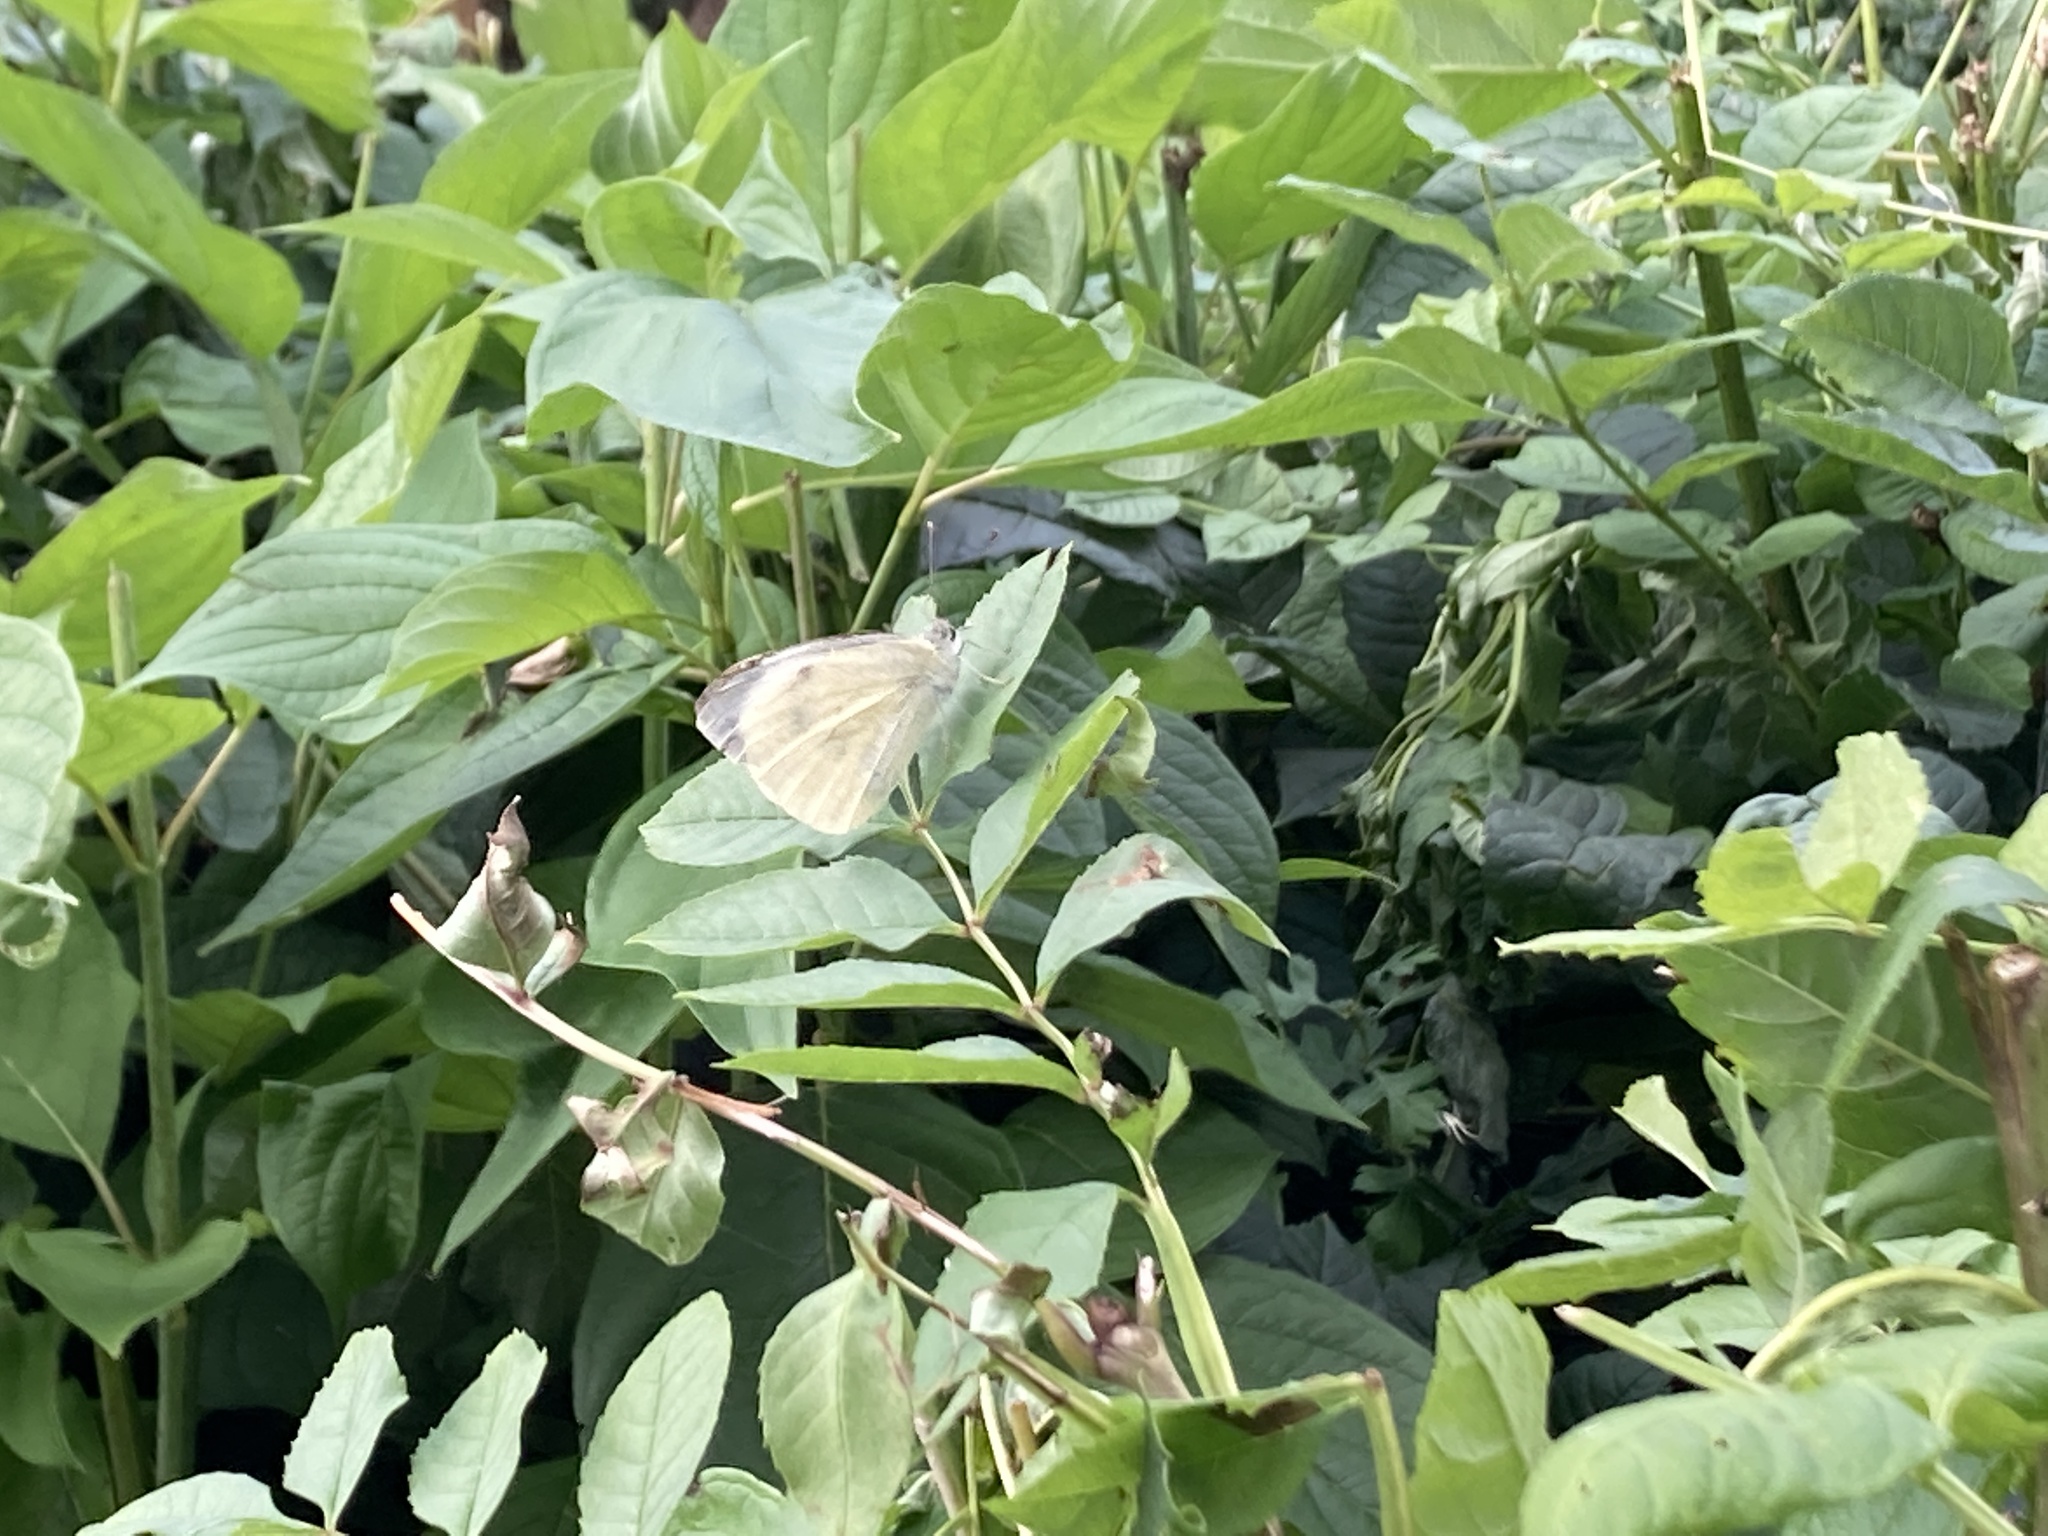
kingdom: Animalia
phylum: Arthropoda
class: Insecta
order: Lepidoptera
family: Pieridae
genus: Pieris
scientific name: Pieris brassicae
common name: Large white
